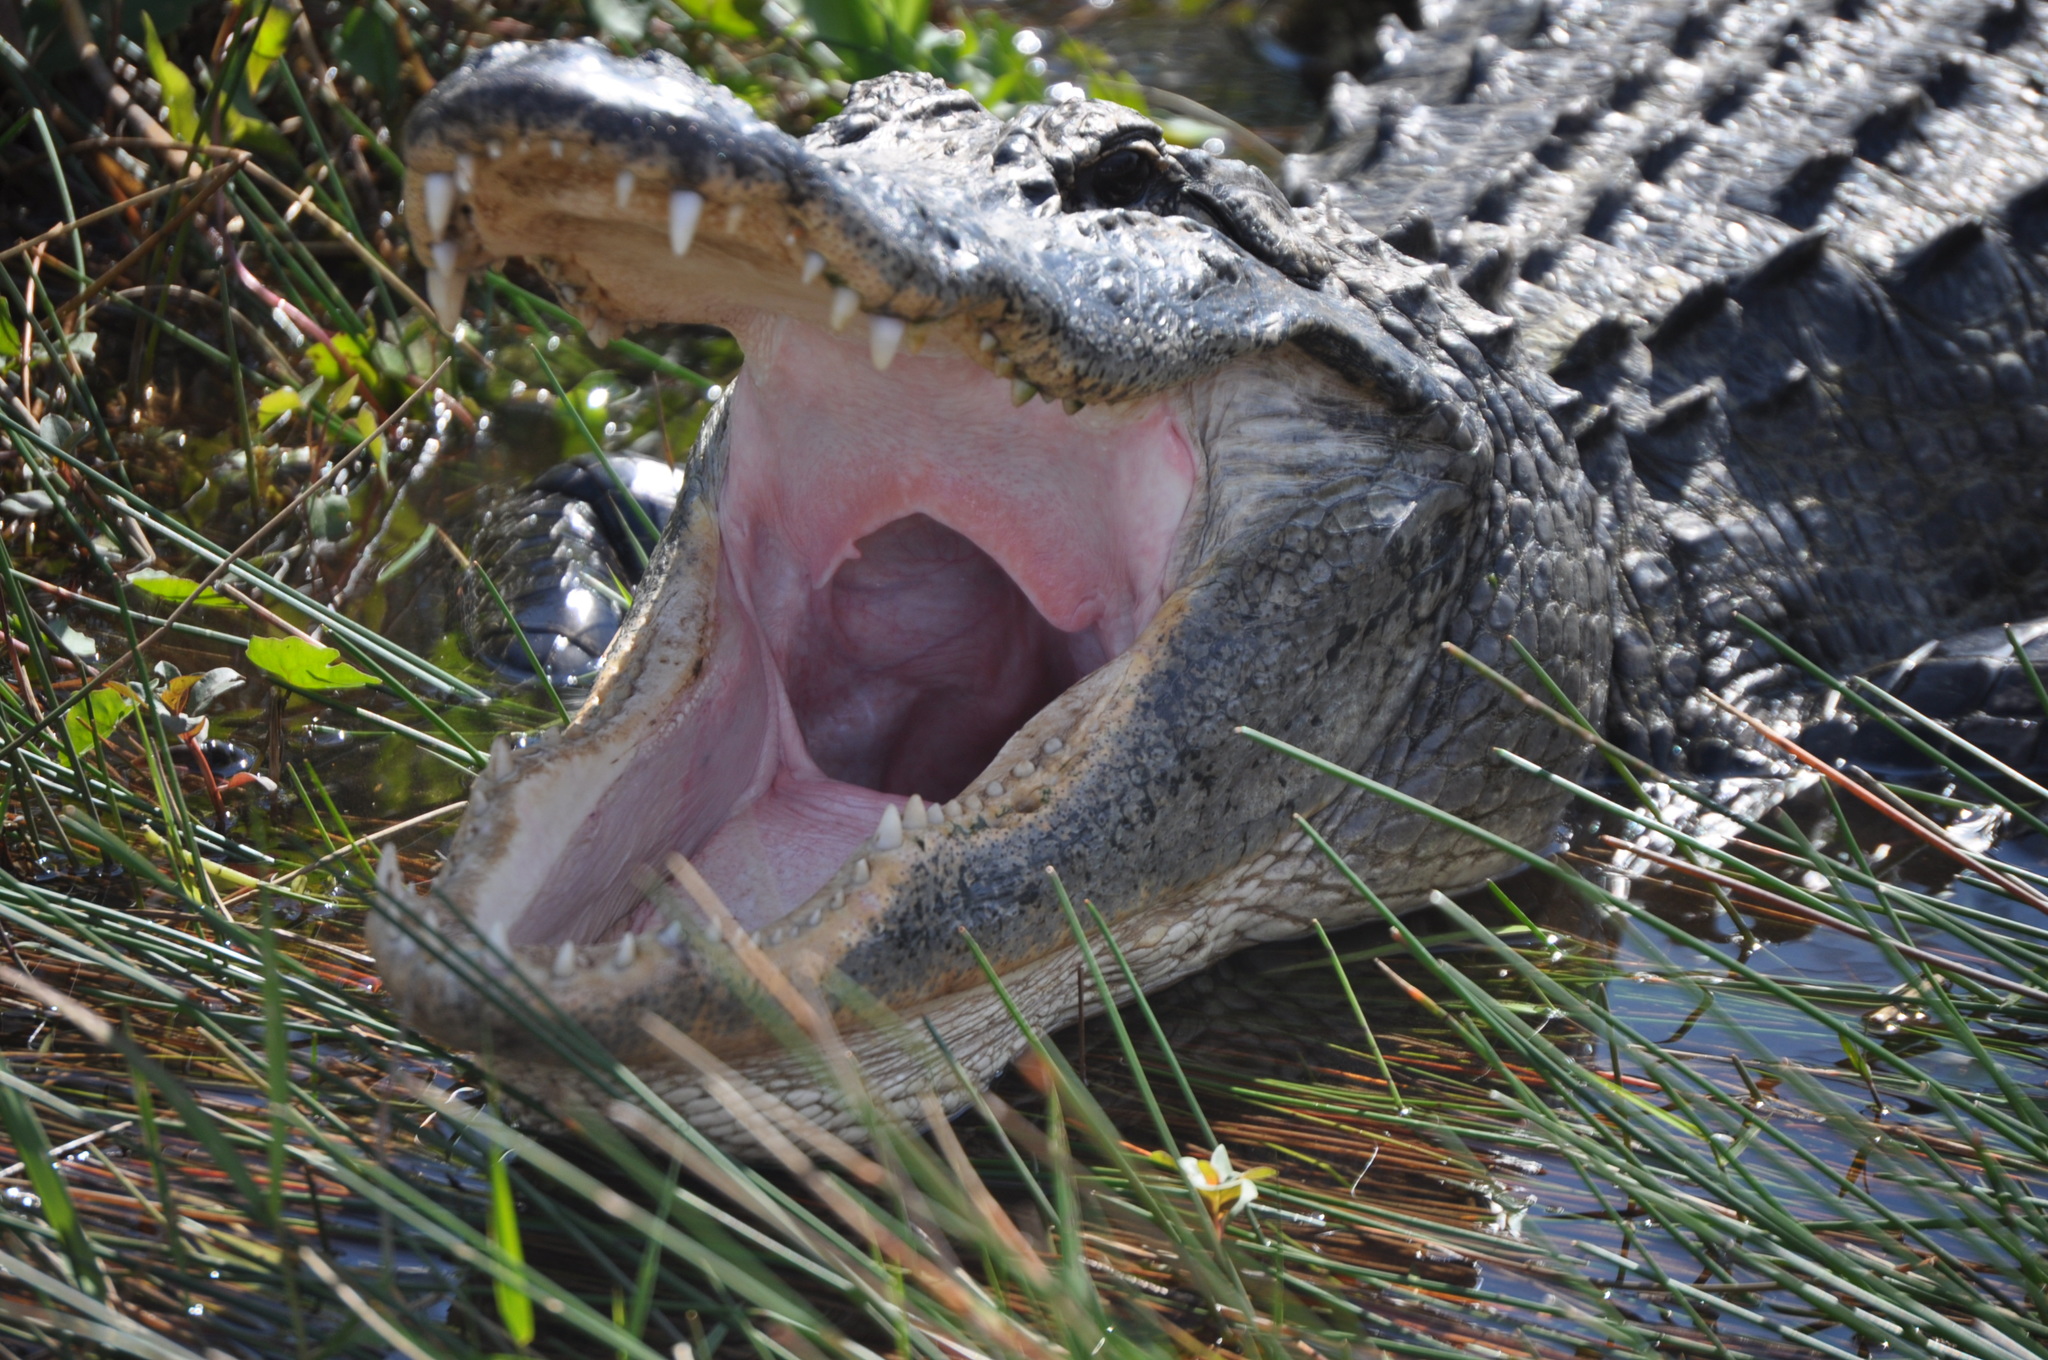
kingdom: Animalia
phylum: Chordata
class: Crocodylia
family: Alligatoridae
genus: Alligator
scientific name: Alligator mississippiensis
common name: American alligator
